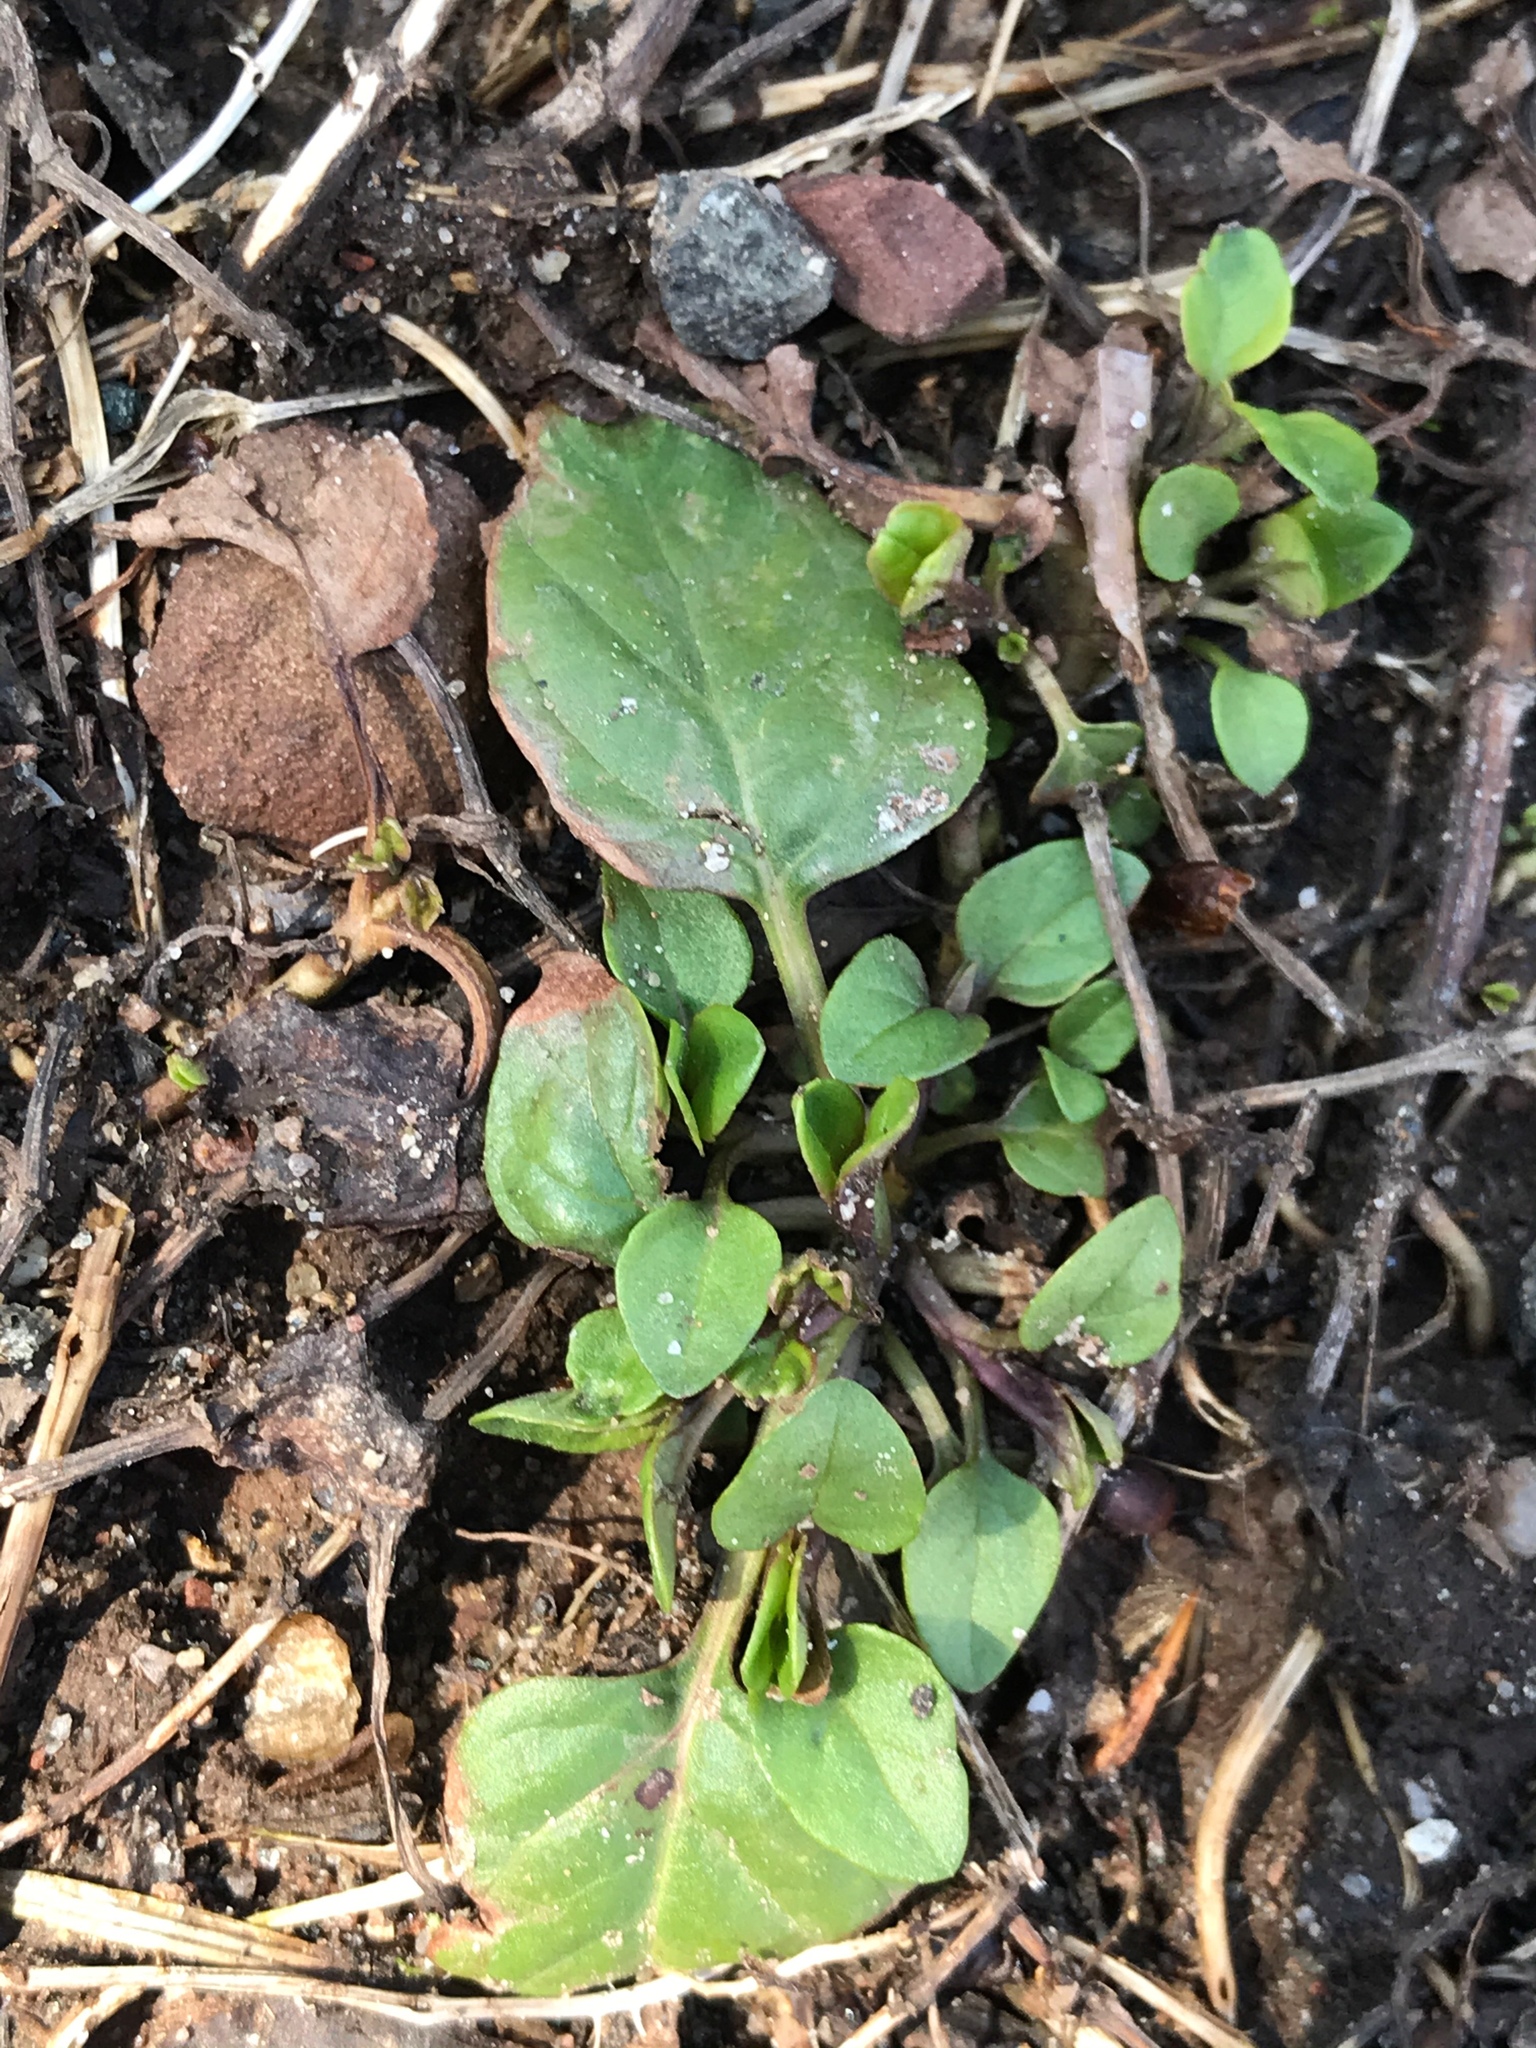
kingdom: Plantae
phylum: Tracheophyta
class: Magnoliopsida
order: Lamiales
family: Lamiaceae
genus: Prunella
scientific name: Prunella vulgaris
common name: Heal-all
